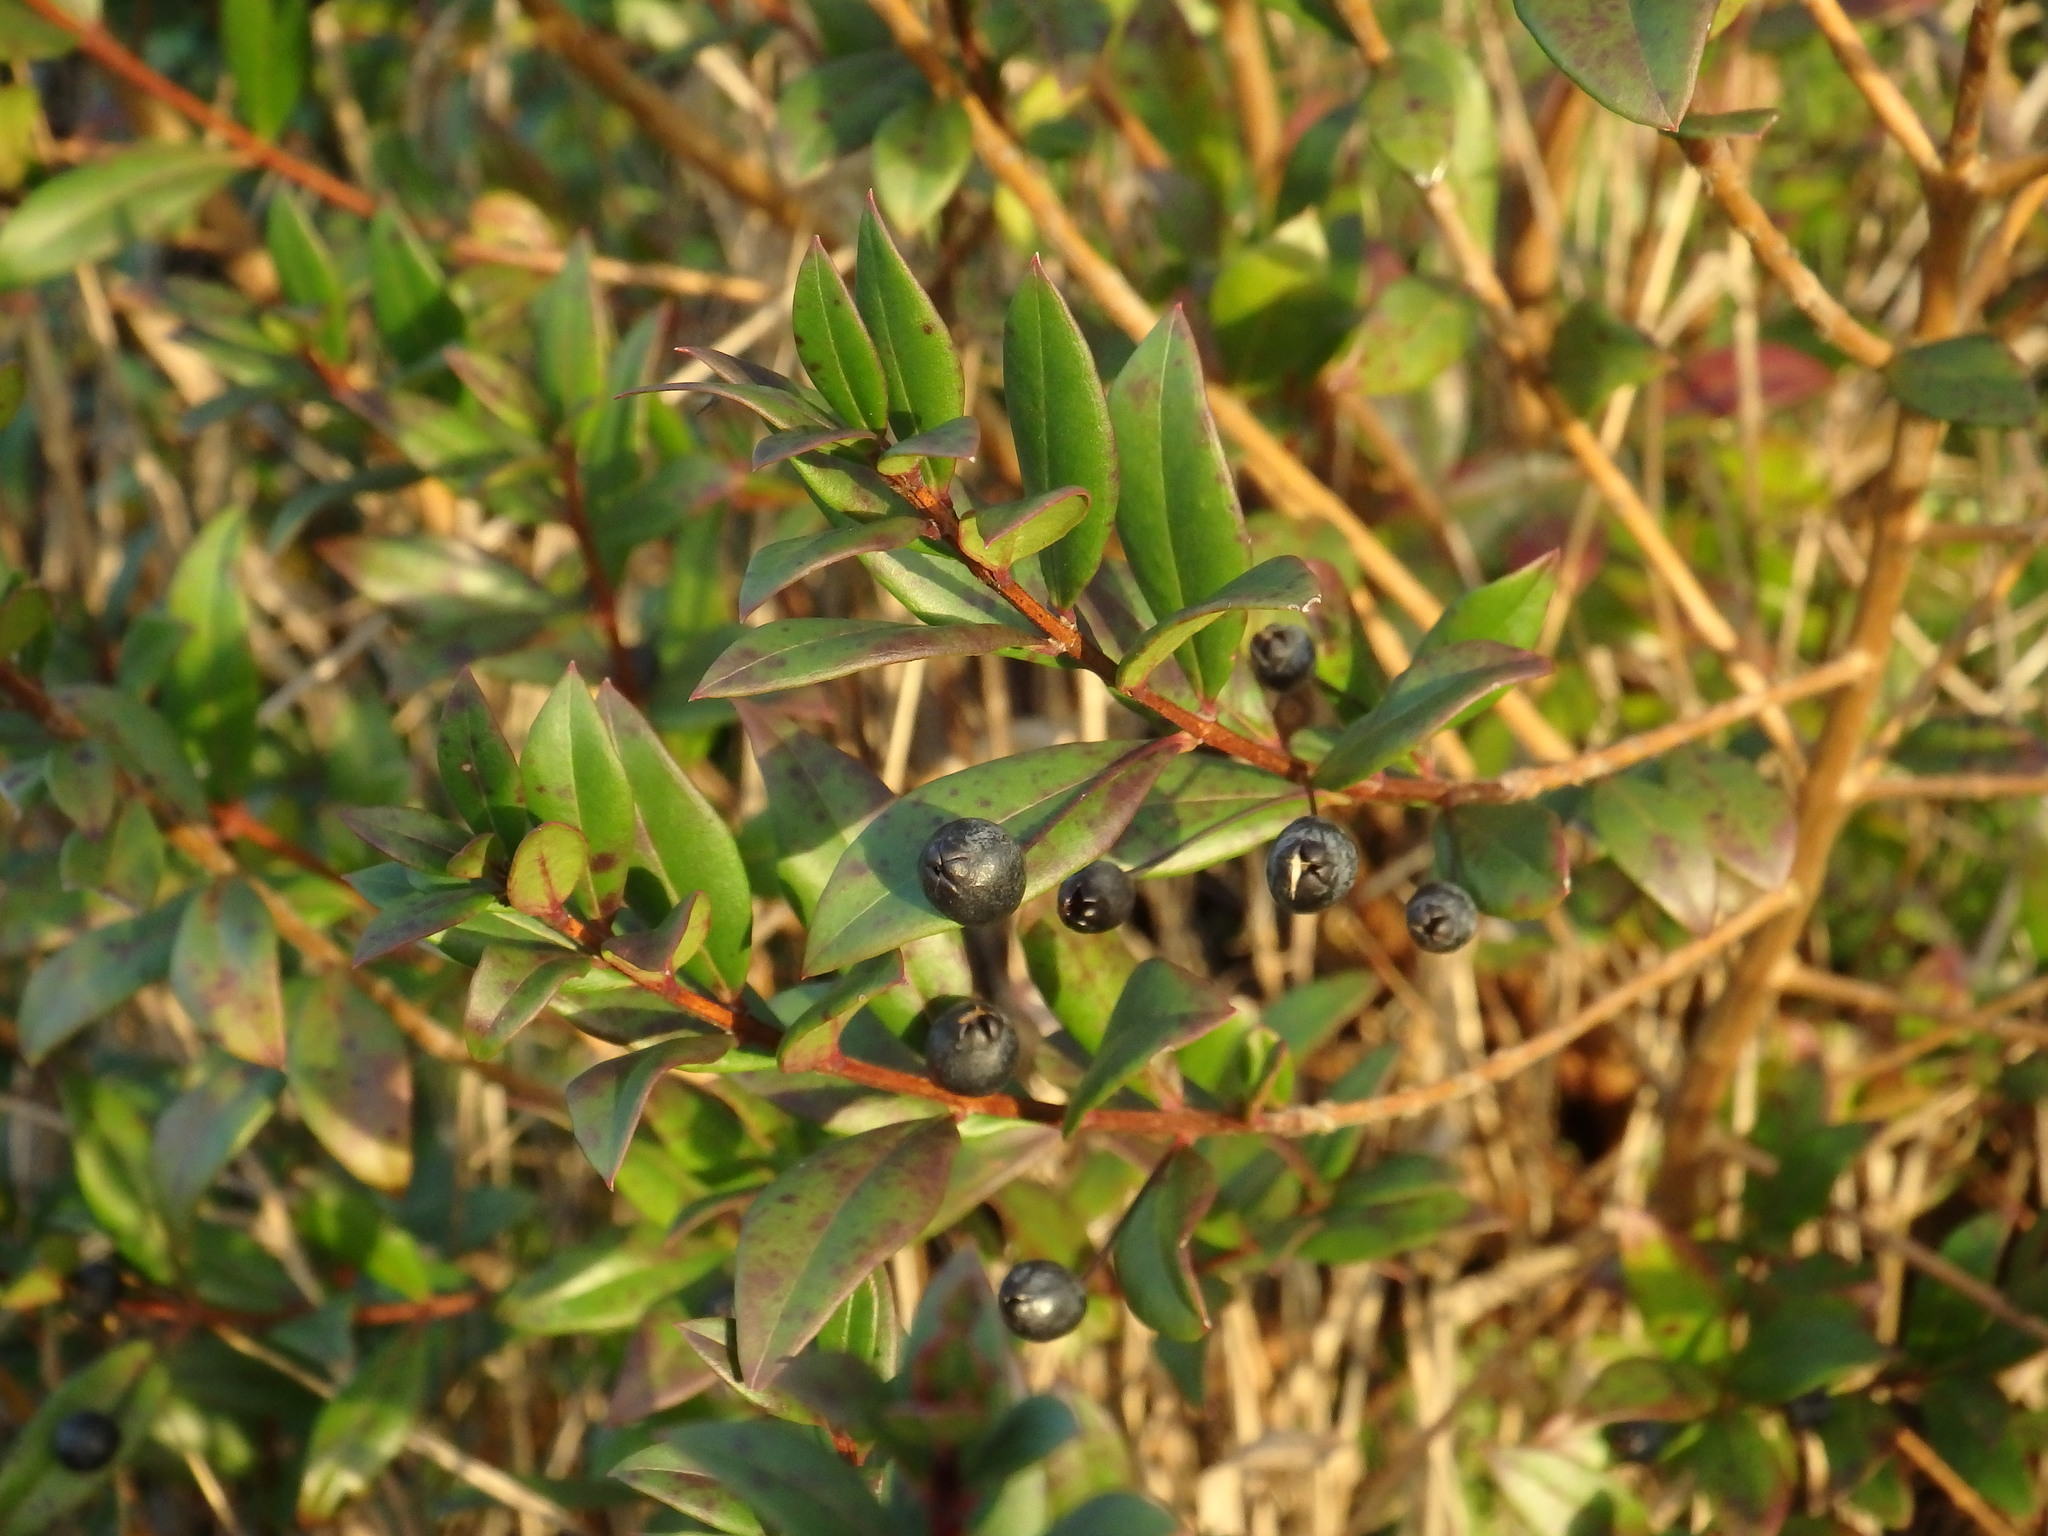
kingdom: Plantae
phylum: Tracheophyta
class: Magnoliopsida
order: Myrtales
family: Myrtaceae
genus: Myrtus
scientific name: Myrtus communis
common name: Myrtle
